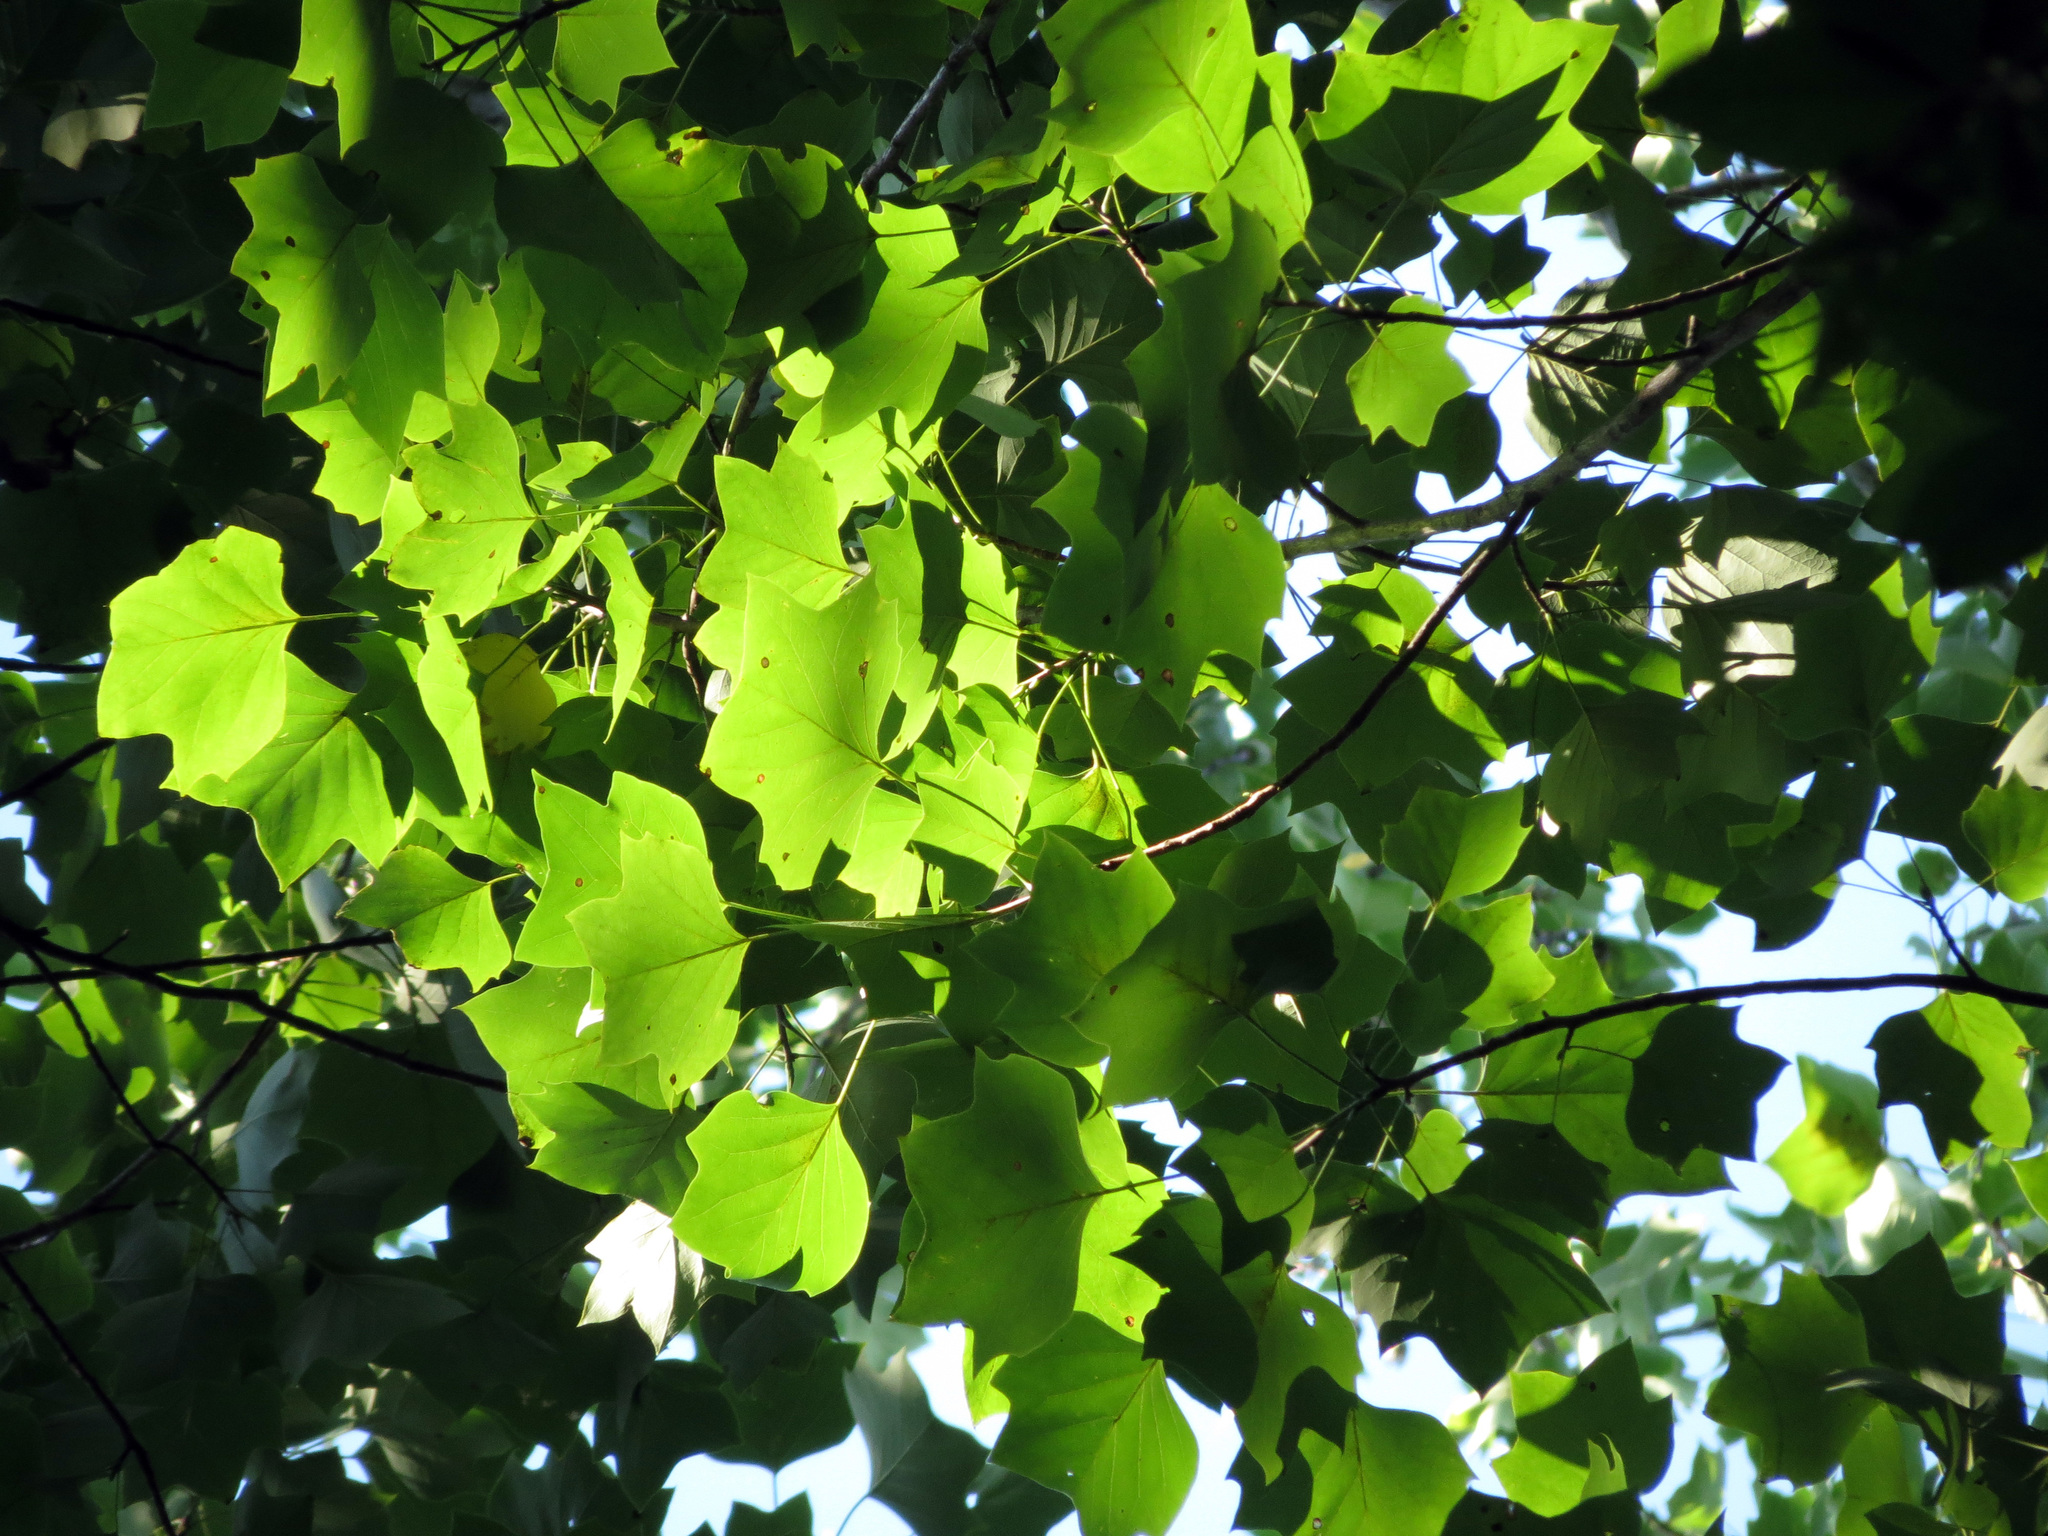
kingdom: Plantae
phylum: Tracheophyta
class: Magnoliopsida
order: Magnoliales
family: Magnoliaceae
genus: Liriodendron
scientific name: Liriodendron tulipifera
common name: Tulip tree
